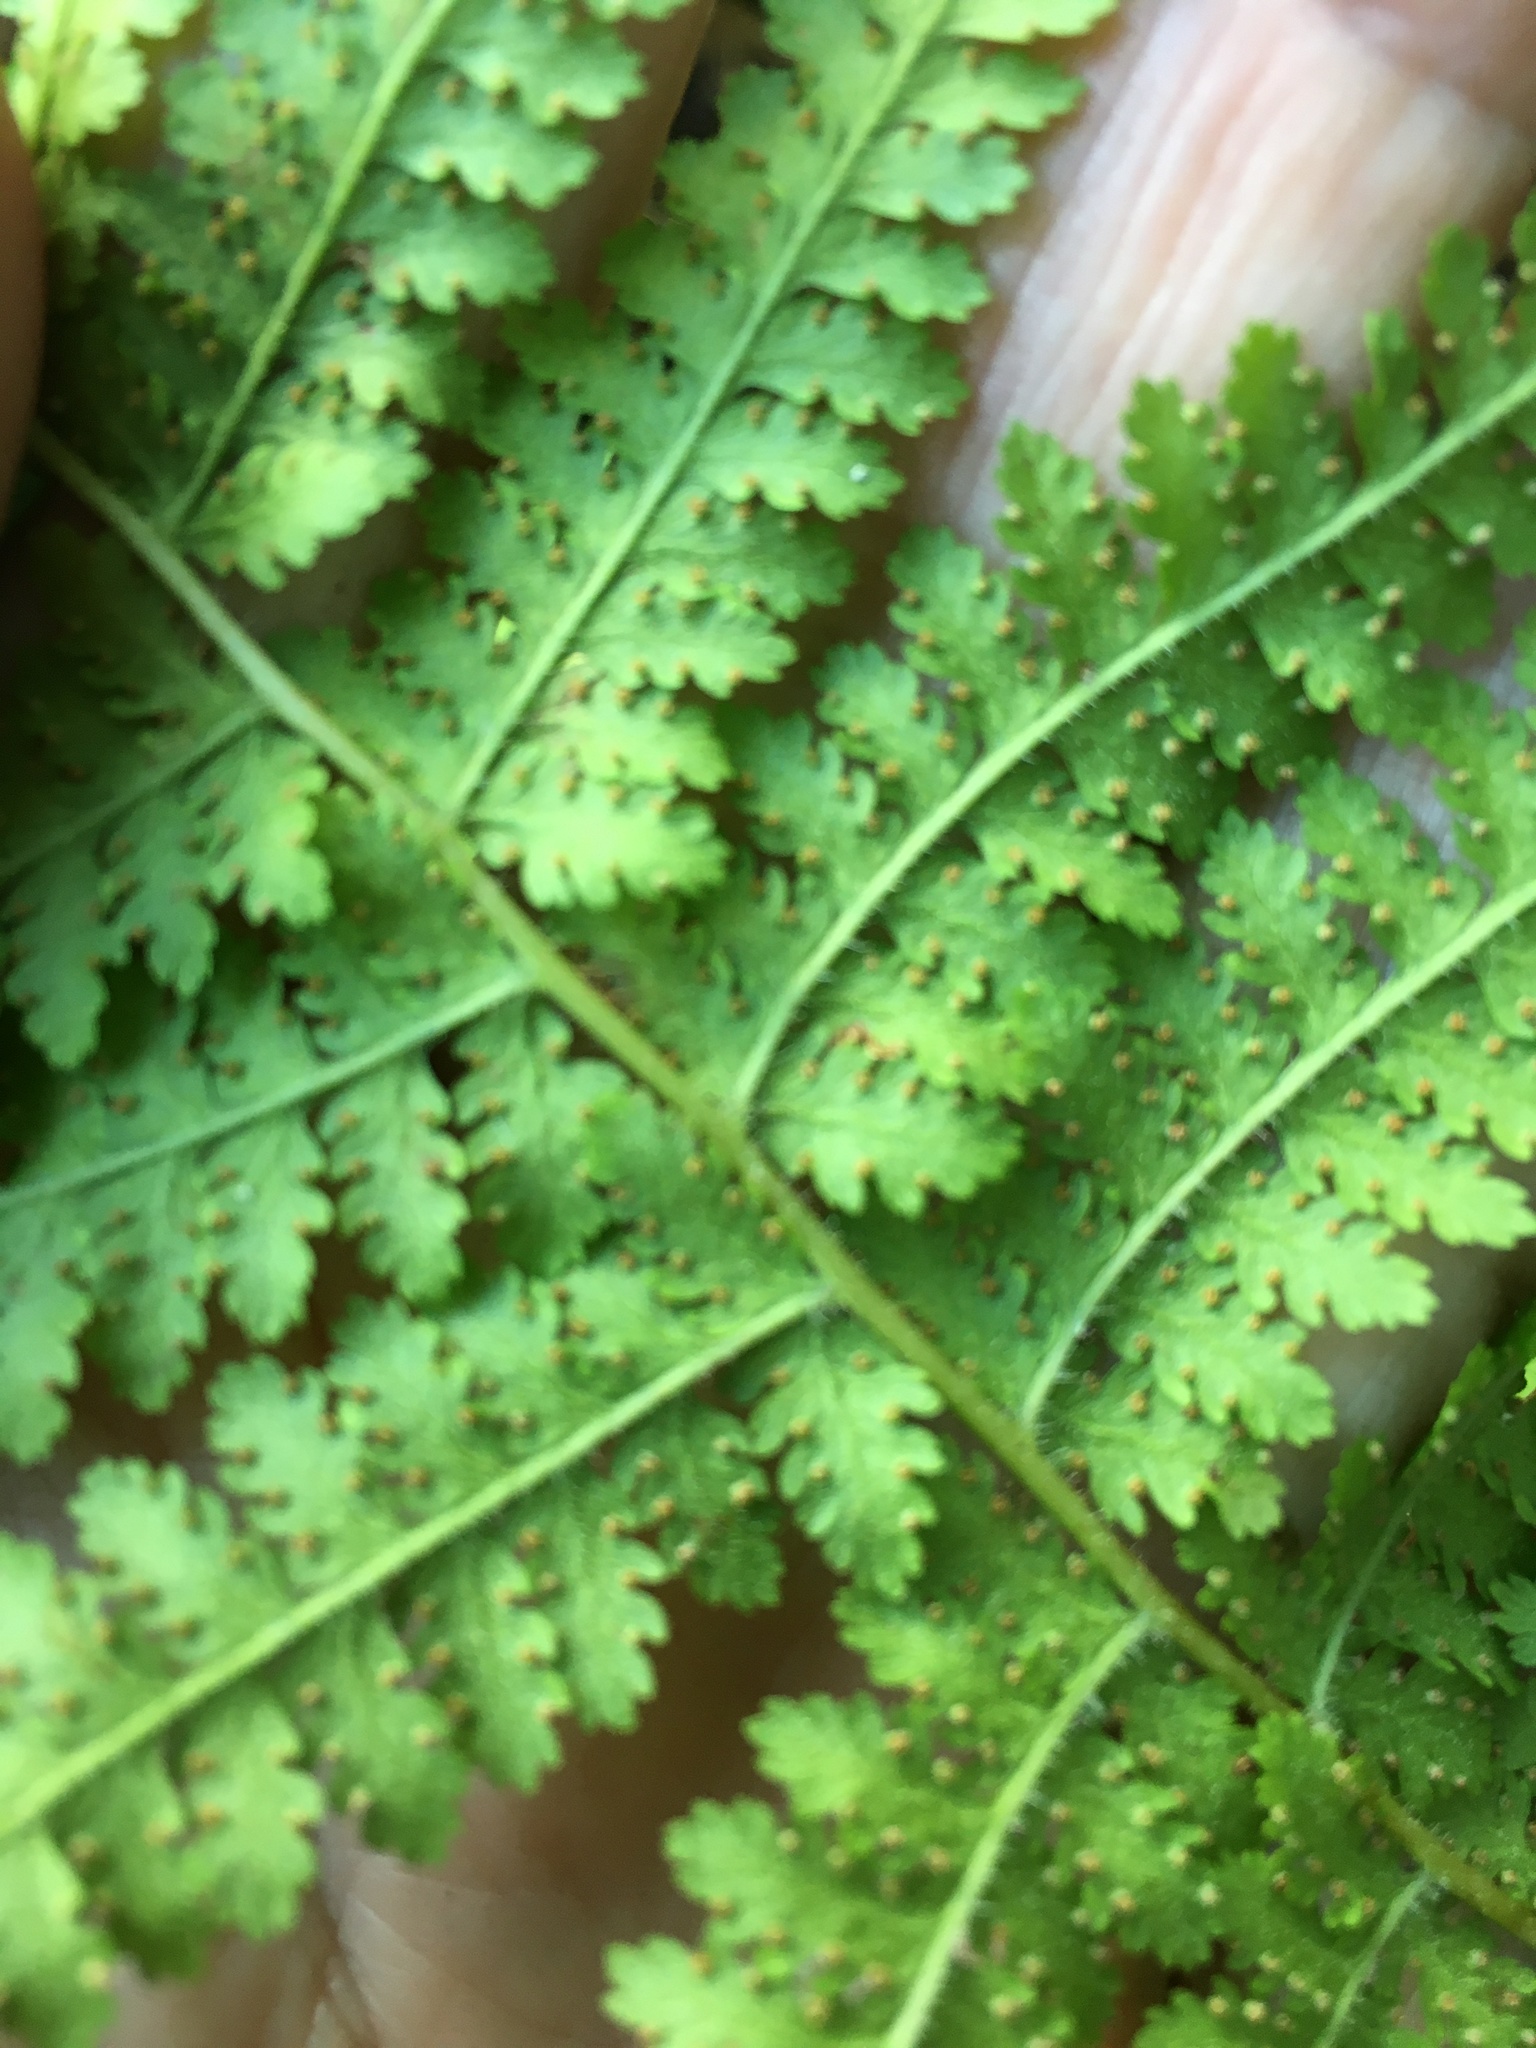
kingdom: Plantae
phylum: Tracheophyta
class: Polypodiopsida
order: Polypodiales
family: Dennstaedtiaceae
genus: Sitobolium
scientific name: Sitobolium punctilobum
